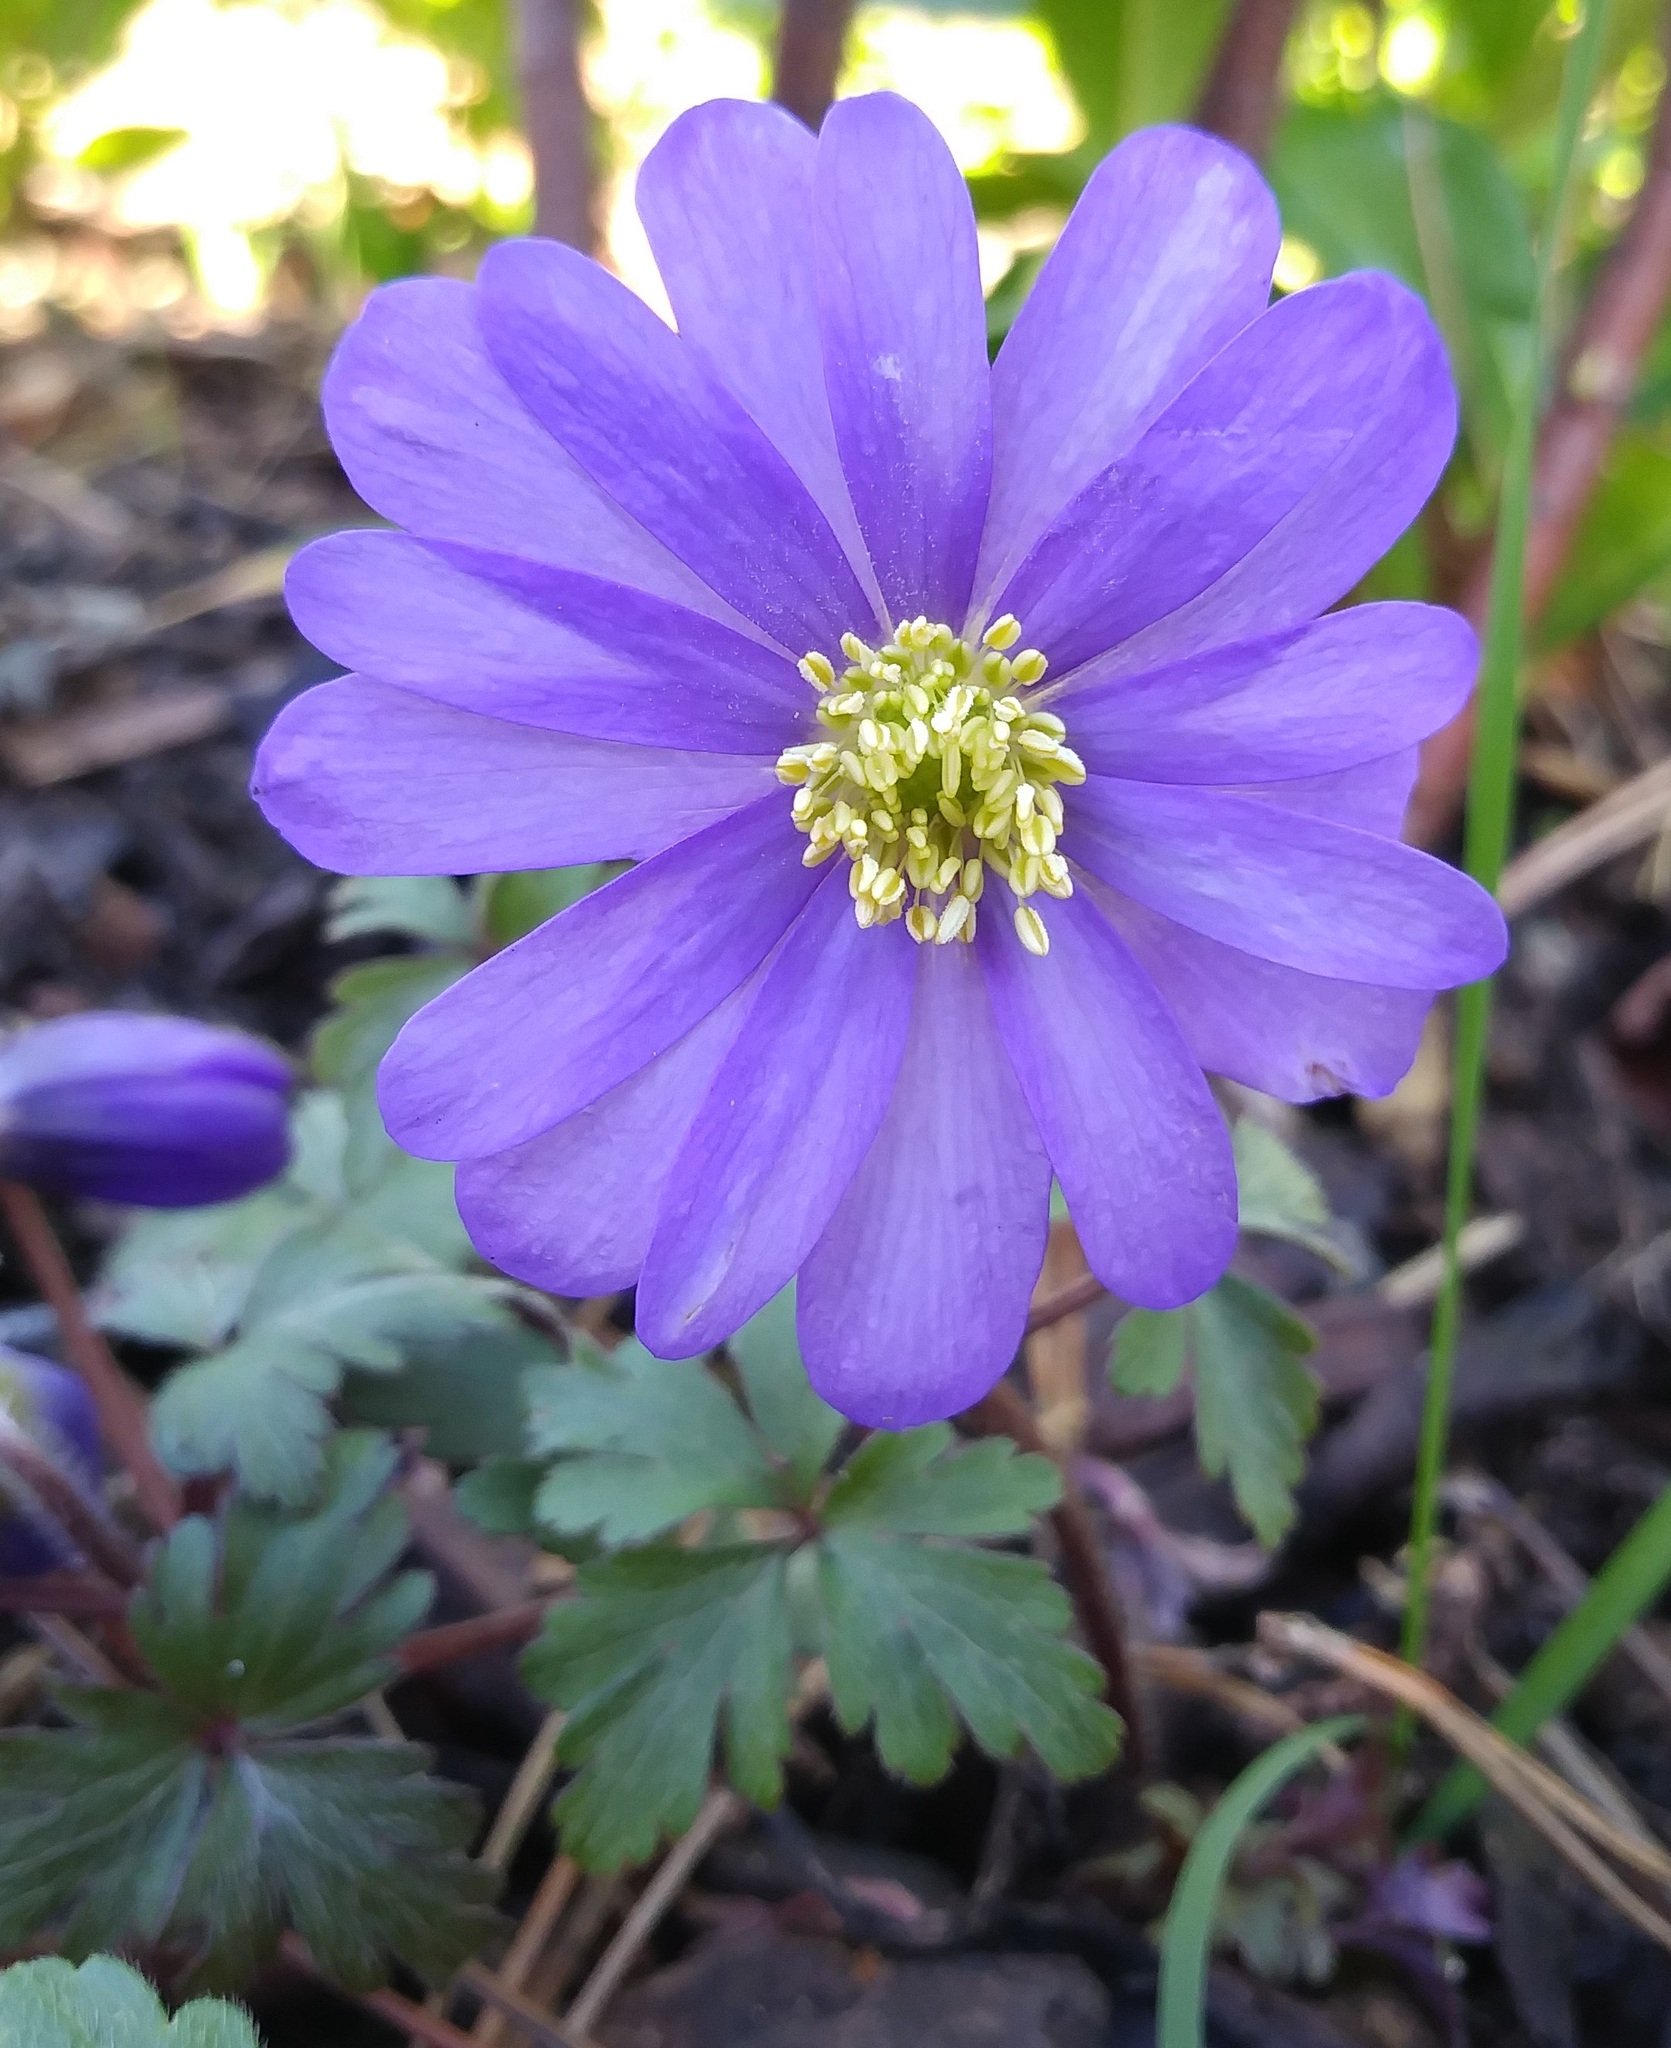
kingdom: Plantae
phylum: Tracheophyta
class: Magnoliopsida
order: Ranunculales
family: Ranunculaceae
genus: Anemone
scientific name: Anemone blanda
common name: Balkan anemone
